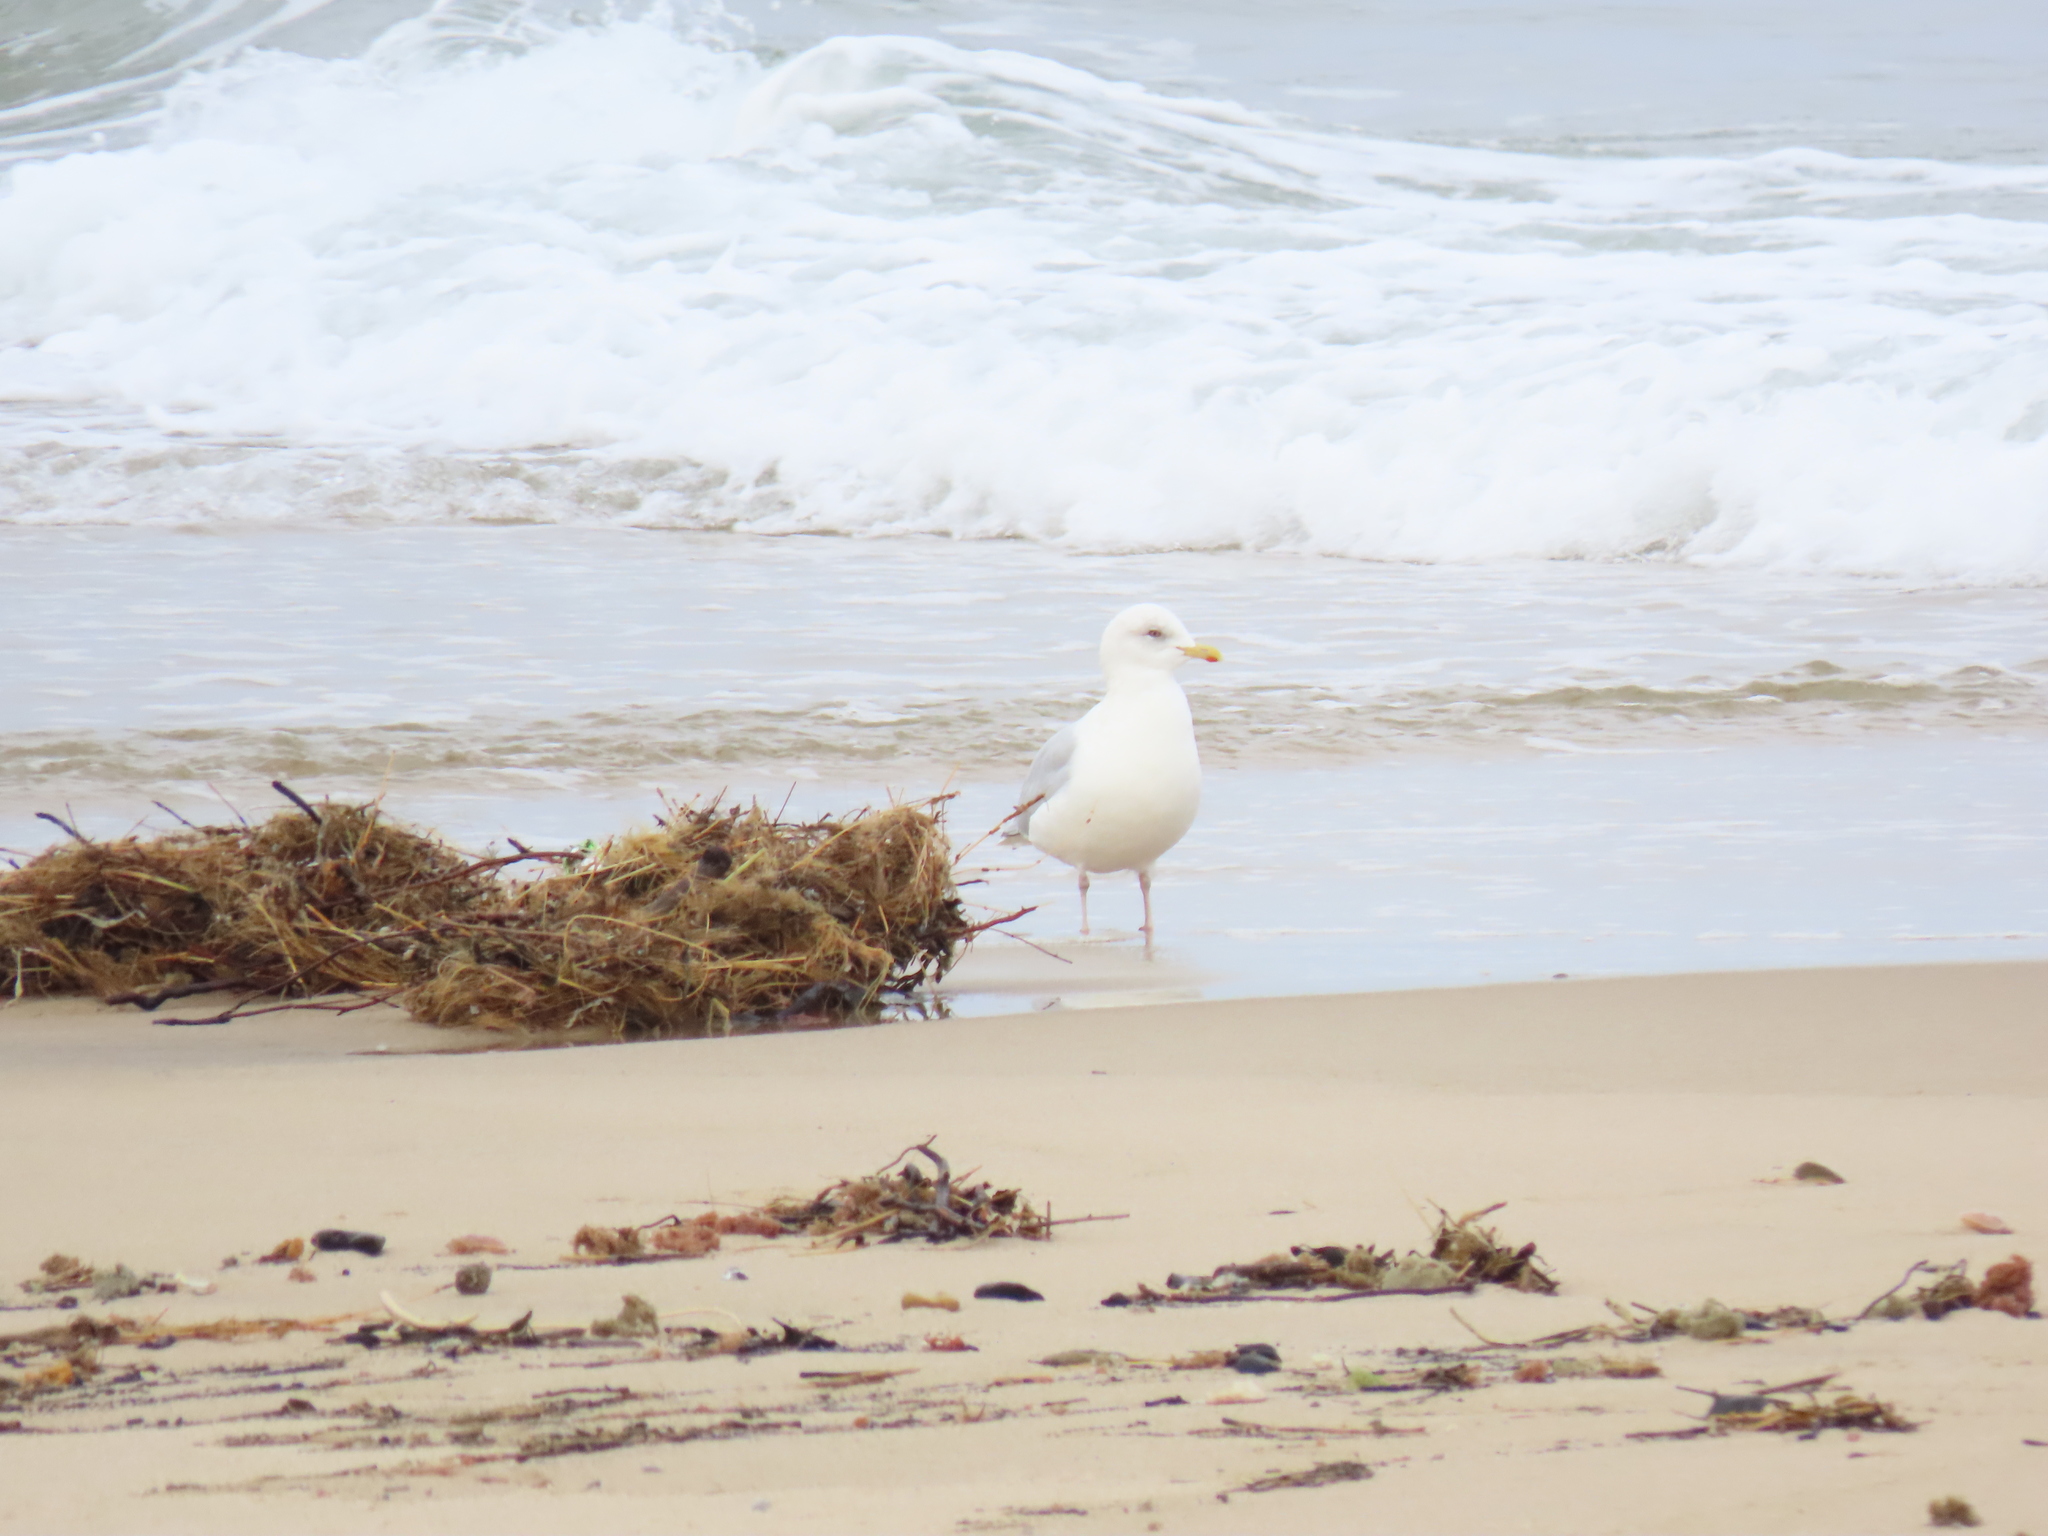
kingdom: Animalia
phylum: Chordata
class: Aves
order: Charadriiformes
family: Laridae
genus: Larus
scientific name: Larus glaucoides
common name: Iceland gull
